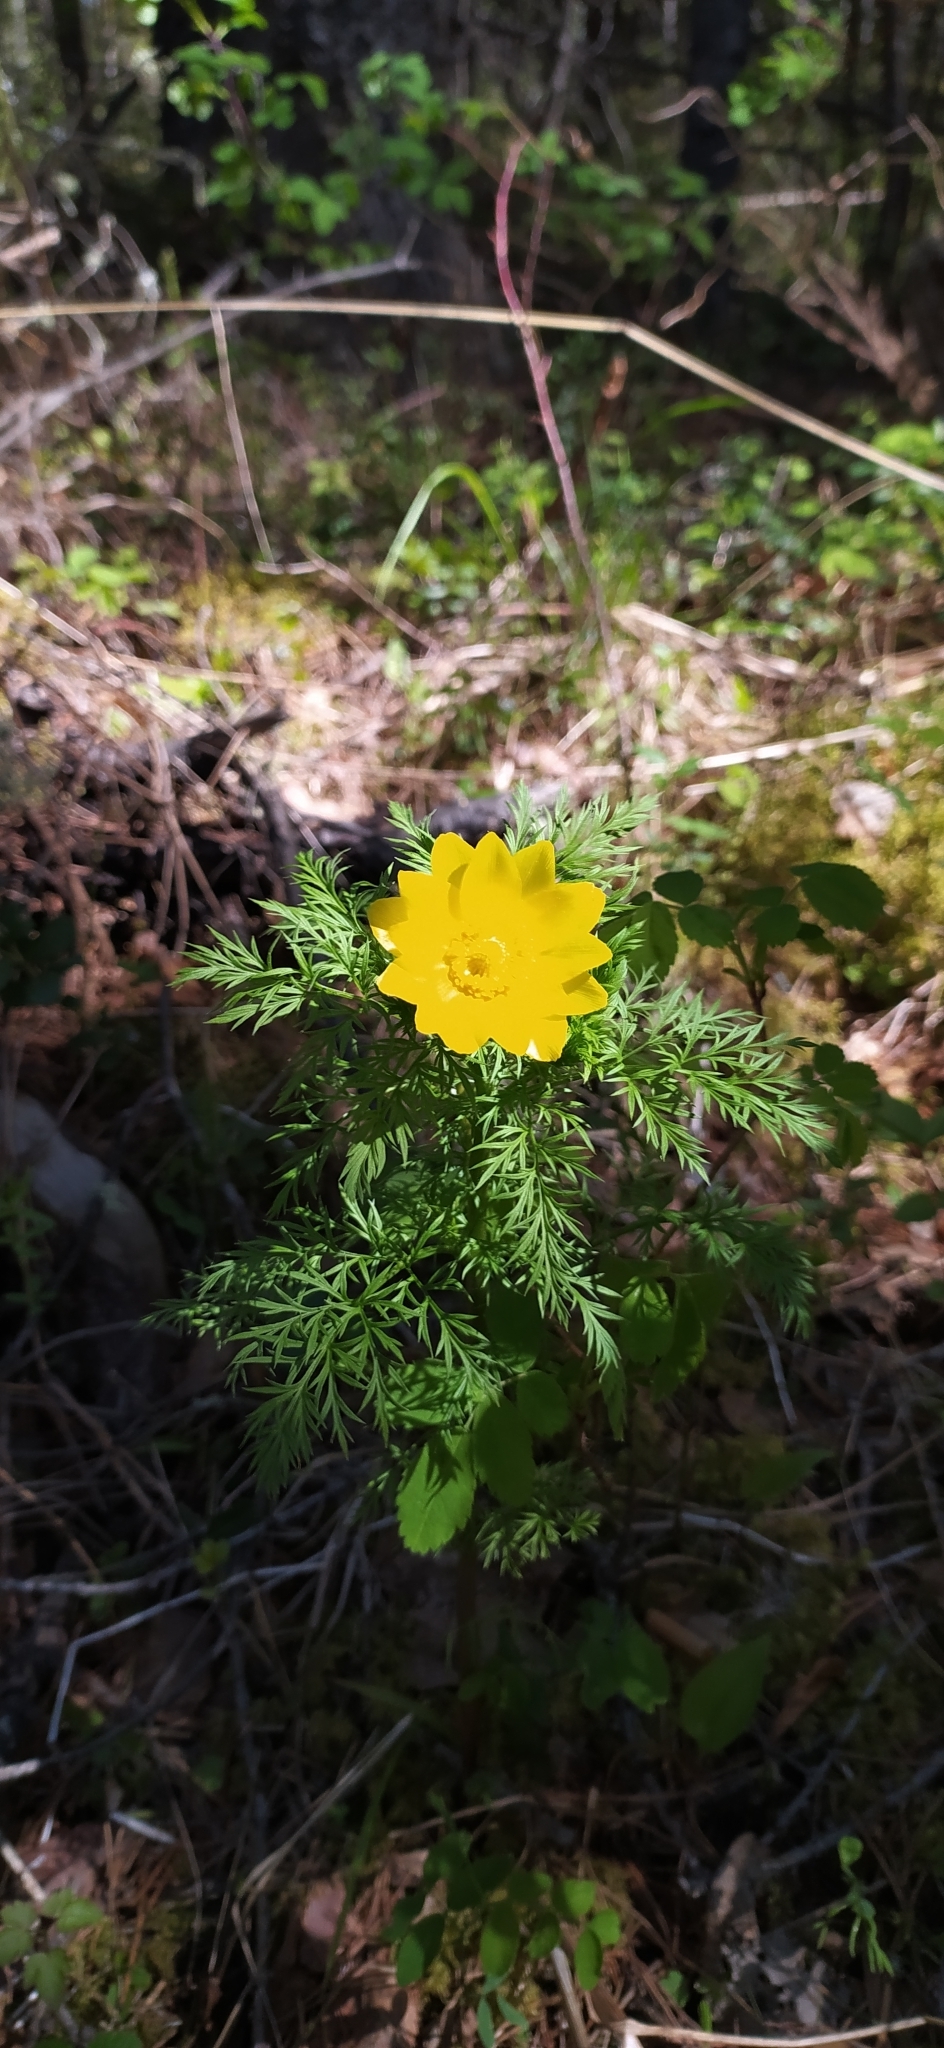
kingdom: Plantae
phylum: Tracheophyta
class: Magnoliopsida
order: Ranunculales
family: Ranunculaceae
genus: Adonis
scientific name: Adonis
